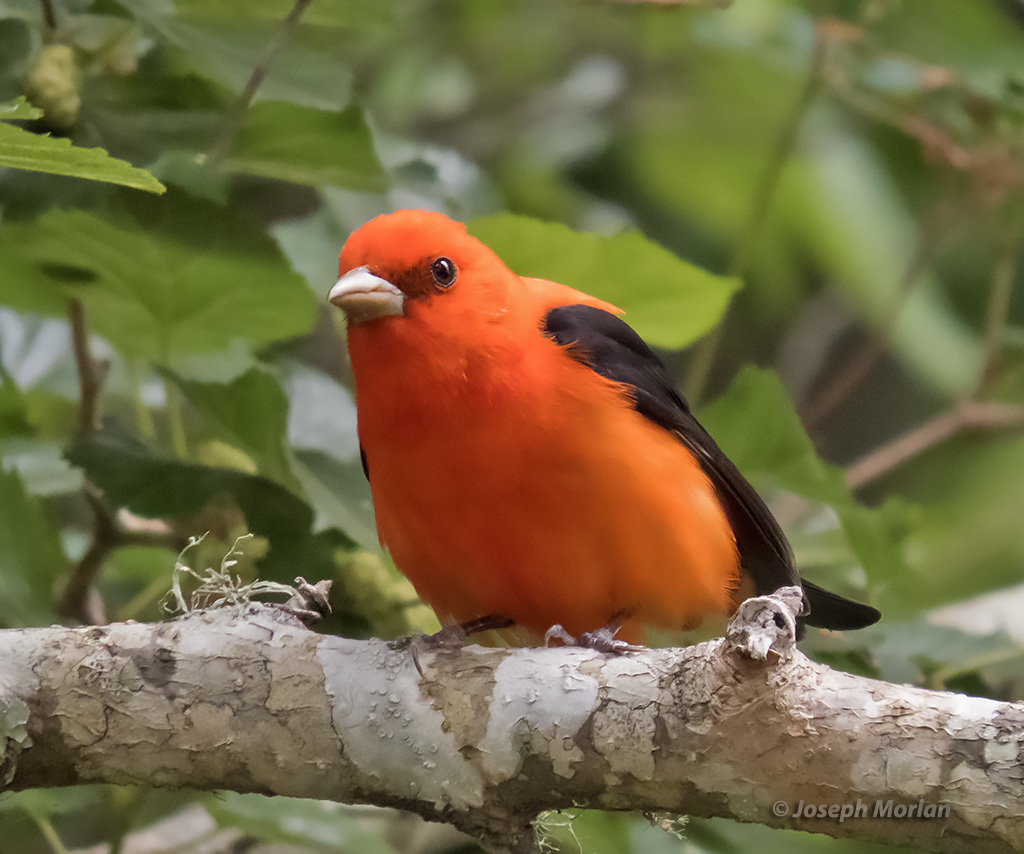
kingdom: Animalia
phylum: Chordata
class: Aves
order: Passeriformes
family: Cardinalidae
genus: Piranga
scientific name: Piranga olivacea
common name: Scarlet tanager
